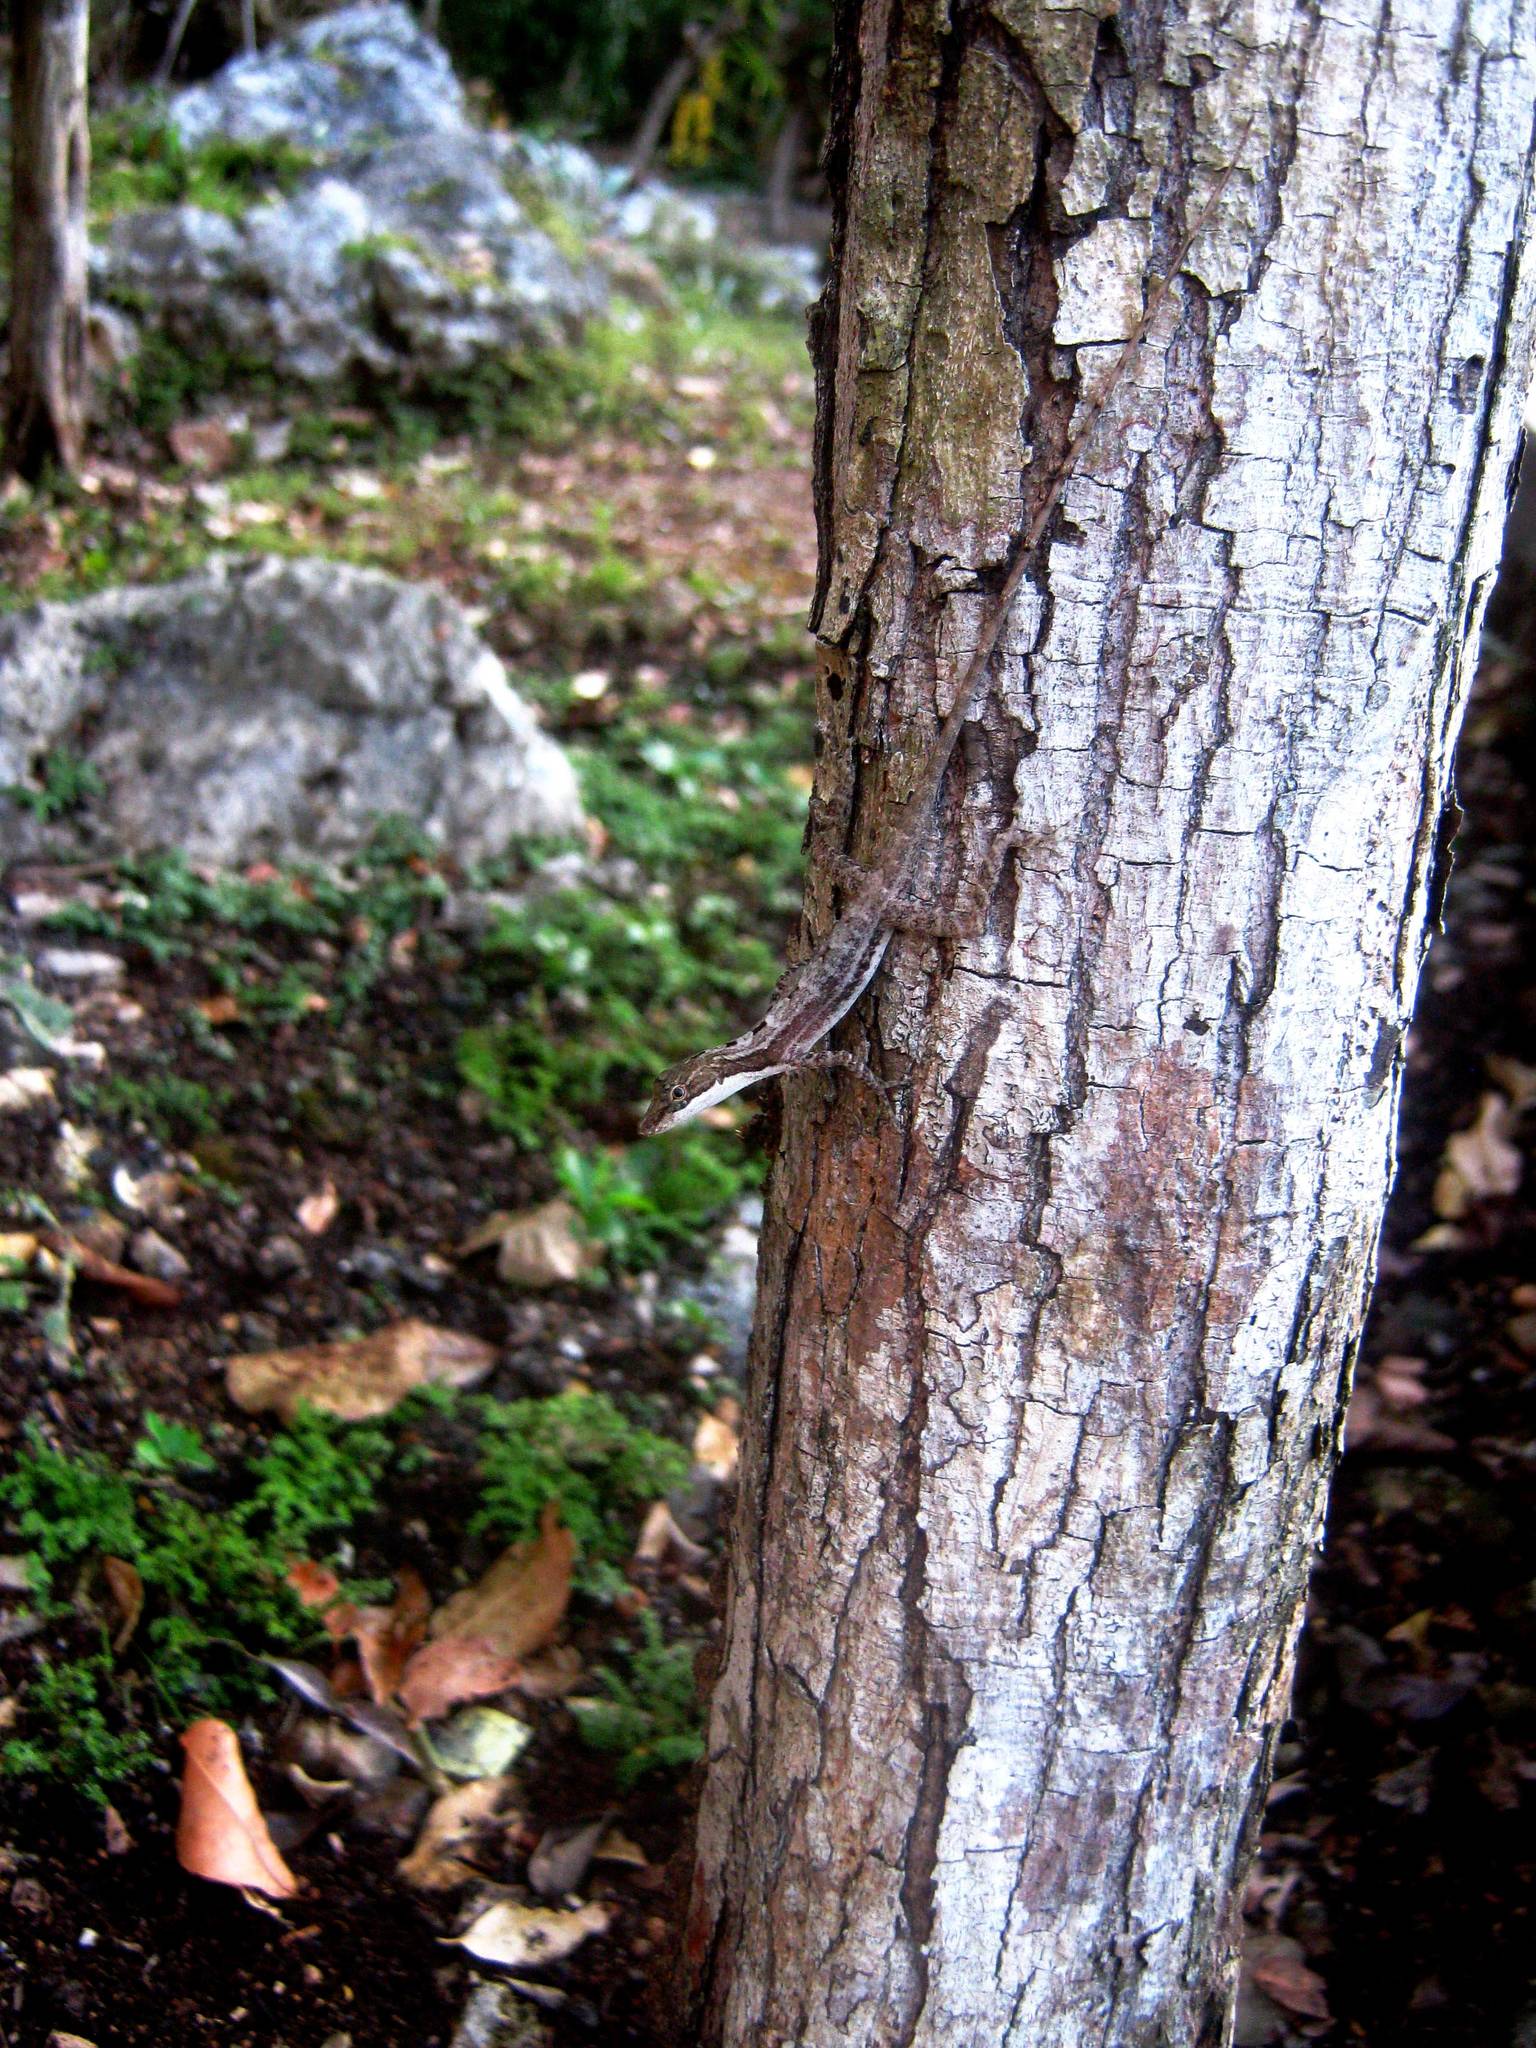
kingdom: Animalia
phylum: Chordata
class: Squamata
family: Dactyloidae
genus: Anolis
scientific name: Anolis rodriguezii
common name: Middle american smooth anole
